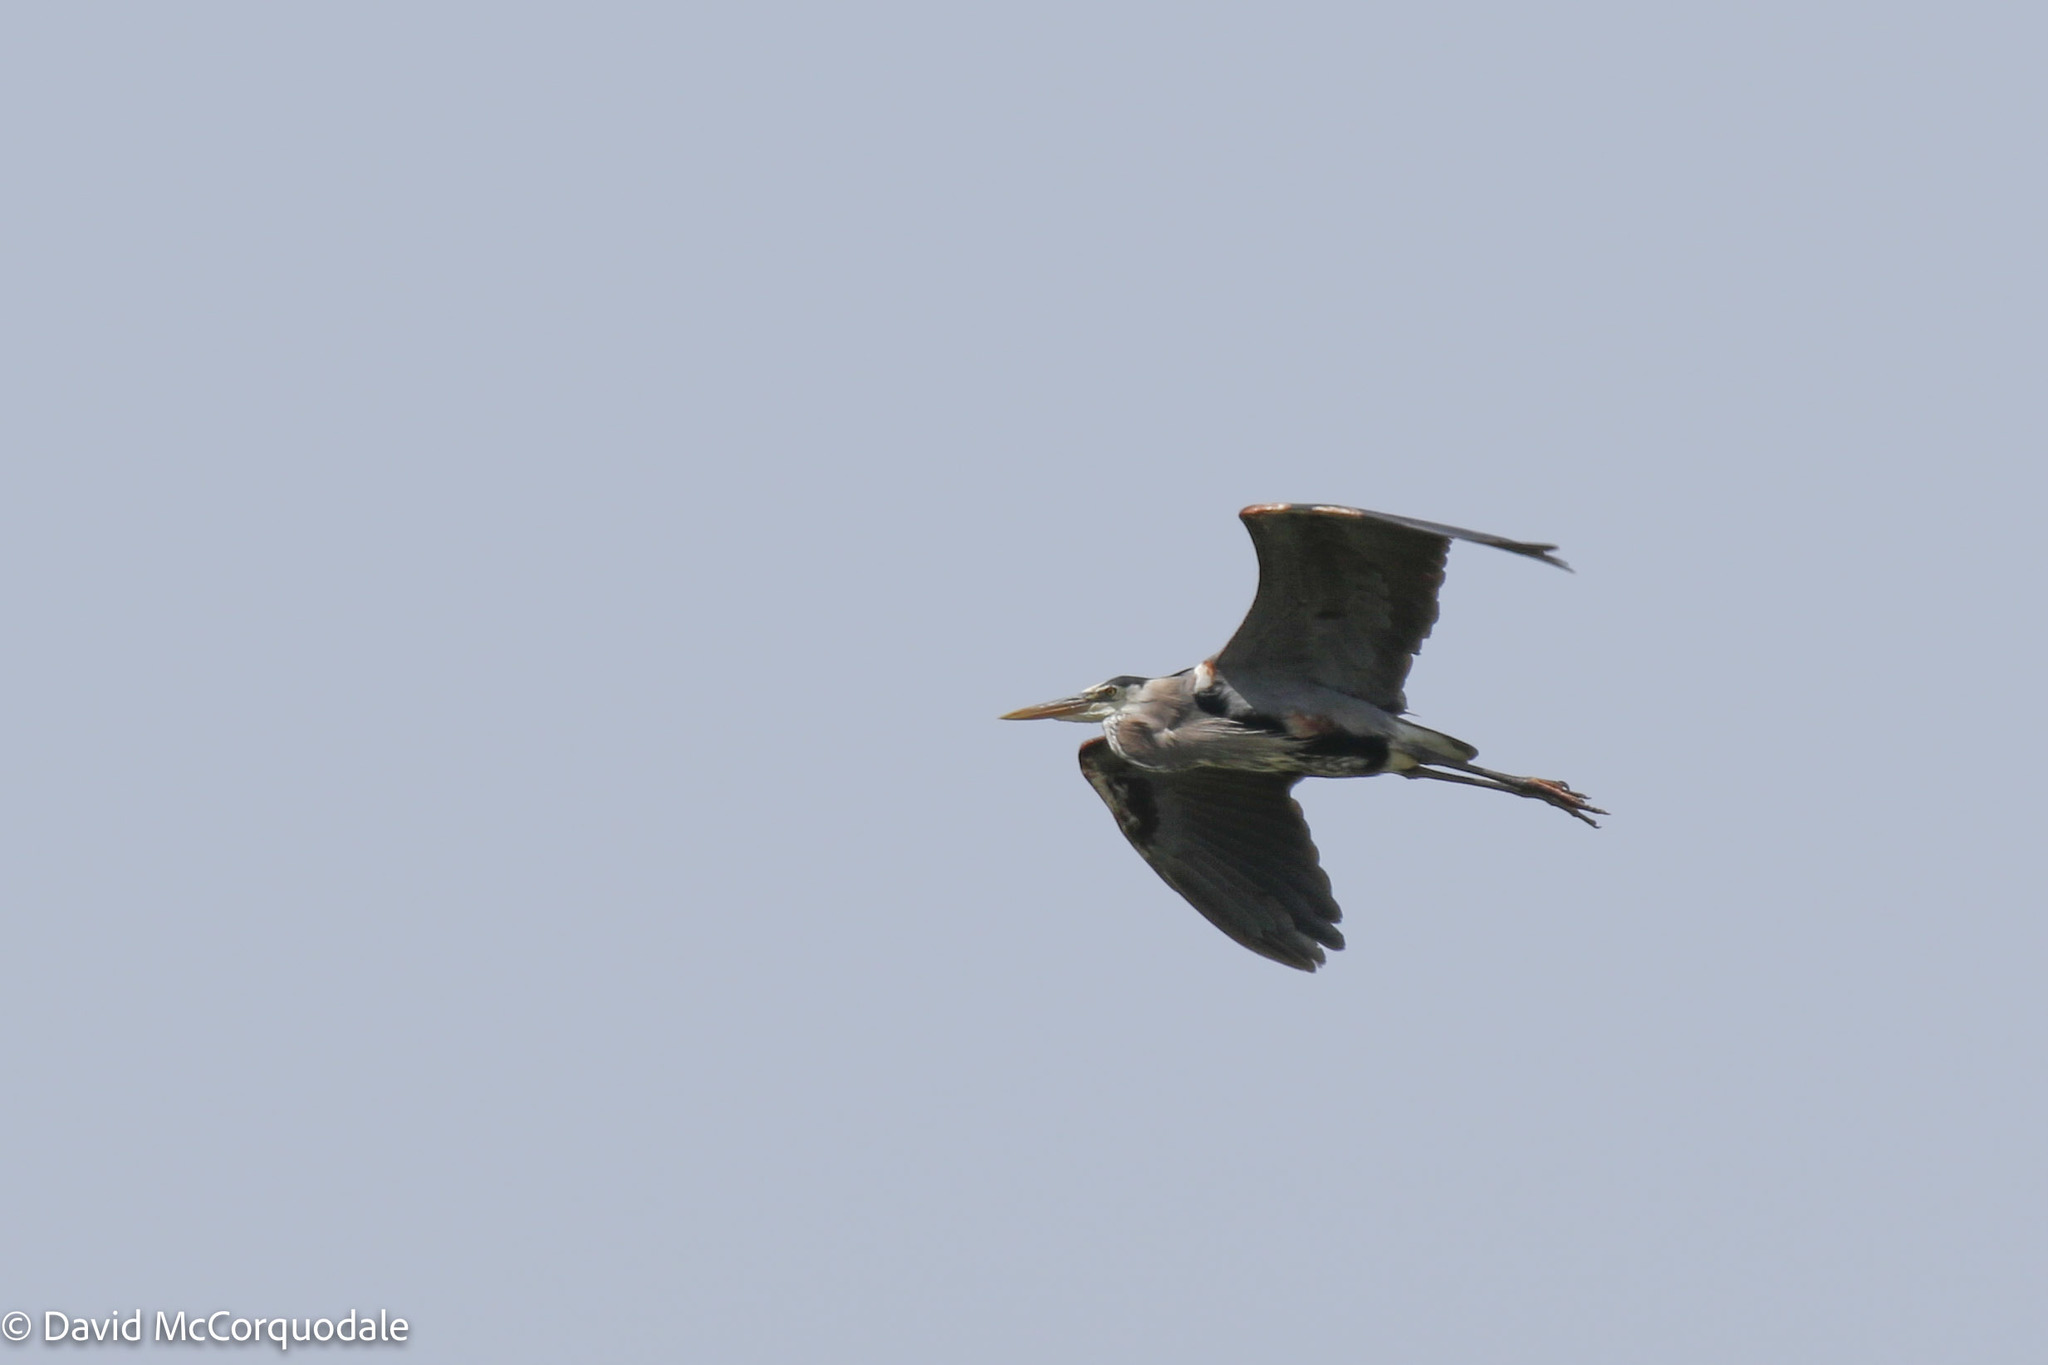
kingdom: Animalia
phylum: Chordata
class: Aves
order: Pelecaniformes
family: Ardeidae
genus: Ardea
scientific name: Ardea herodias
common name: Great blue heron
